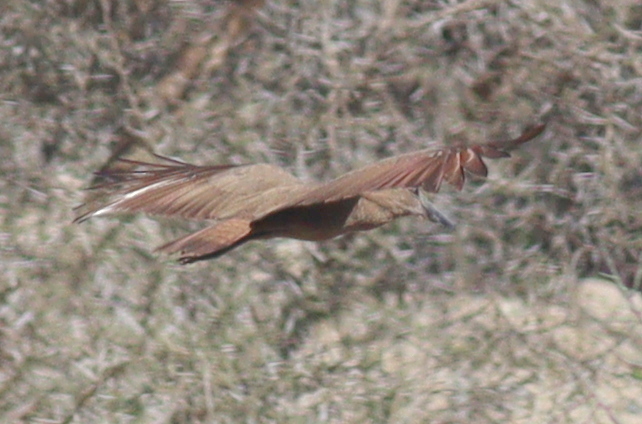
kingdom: Animalia
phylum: Chordata
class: Aves
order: Pelecaniformes
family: Scopidae
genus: Scopus
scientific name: Scopus umbretta
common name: Hamerkop
